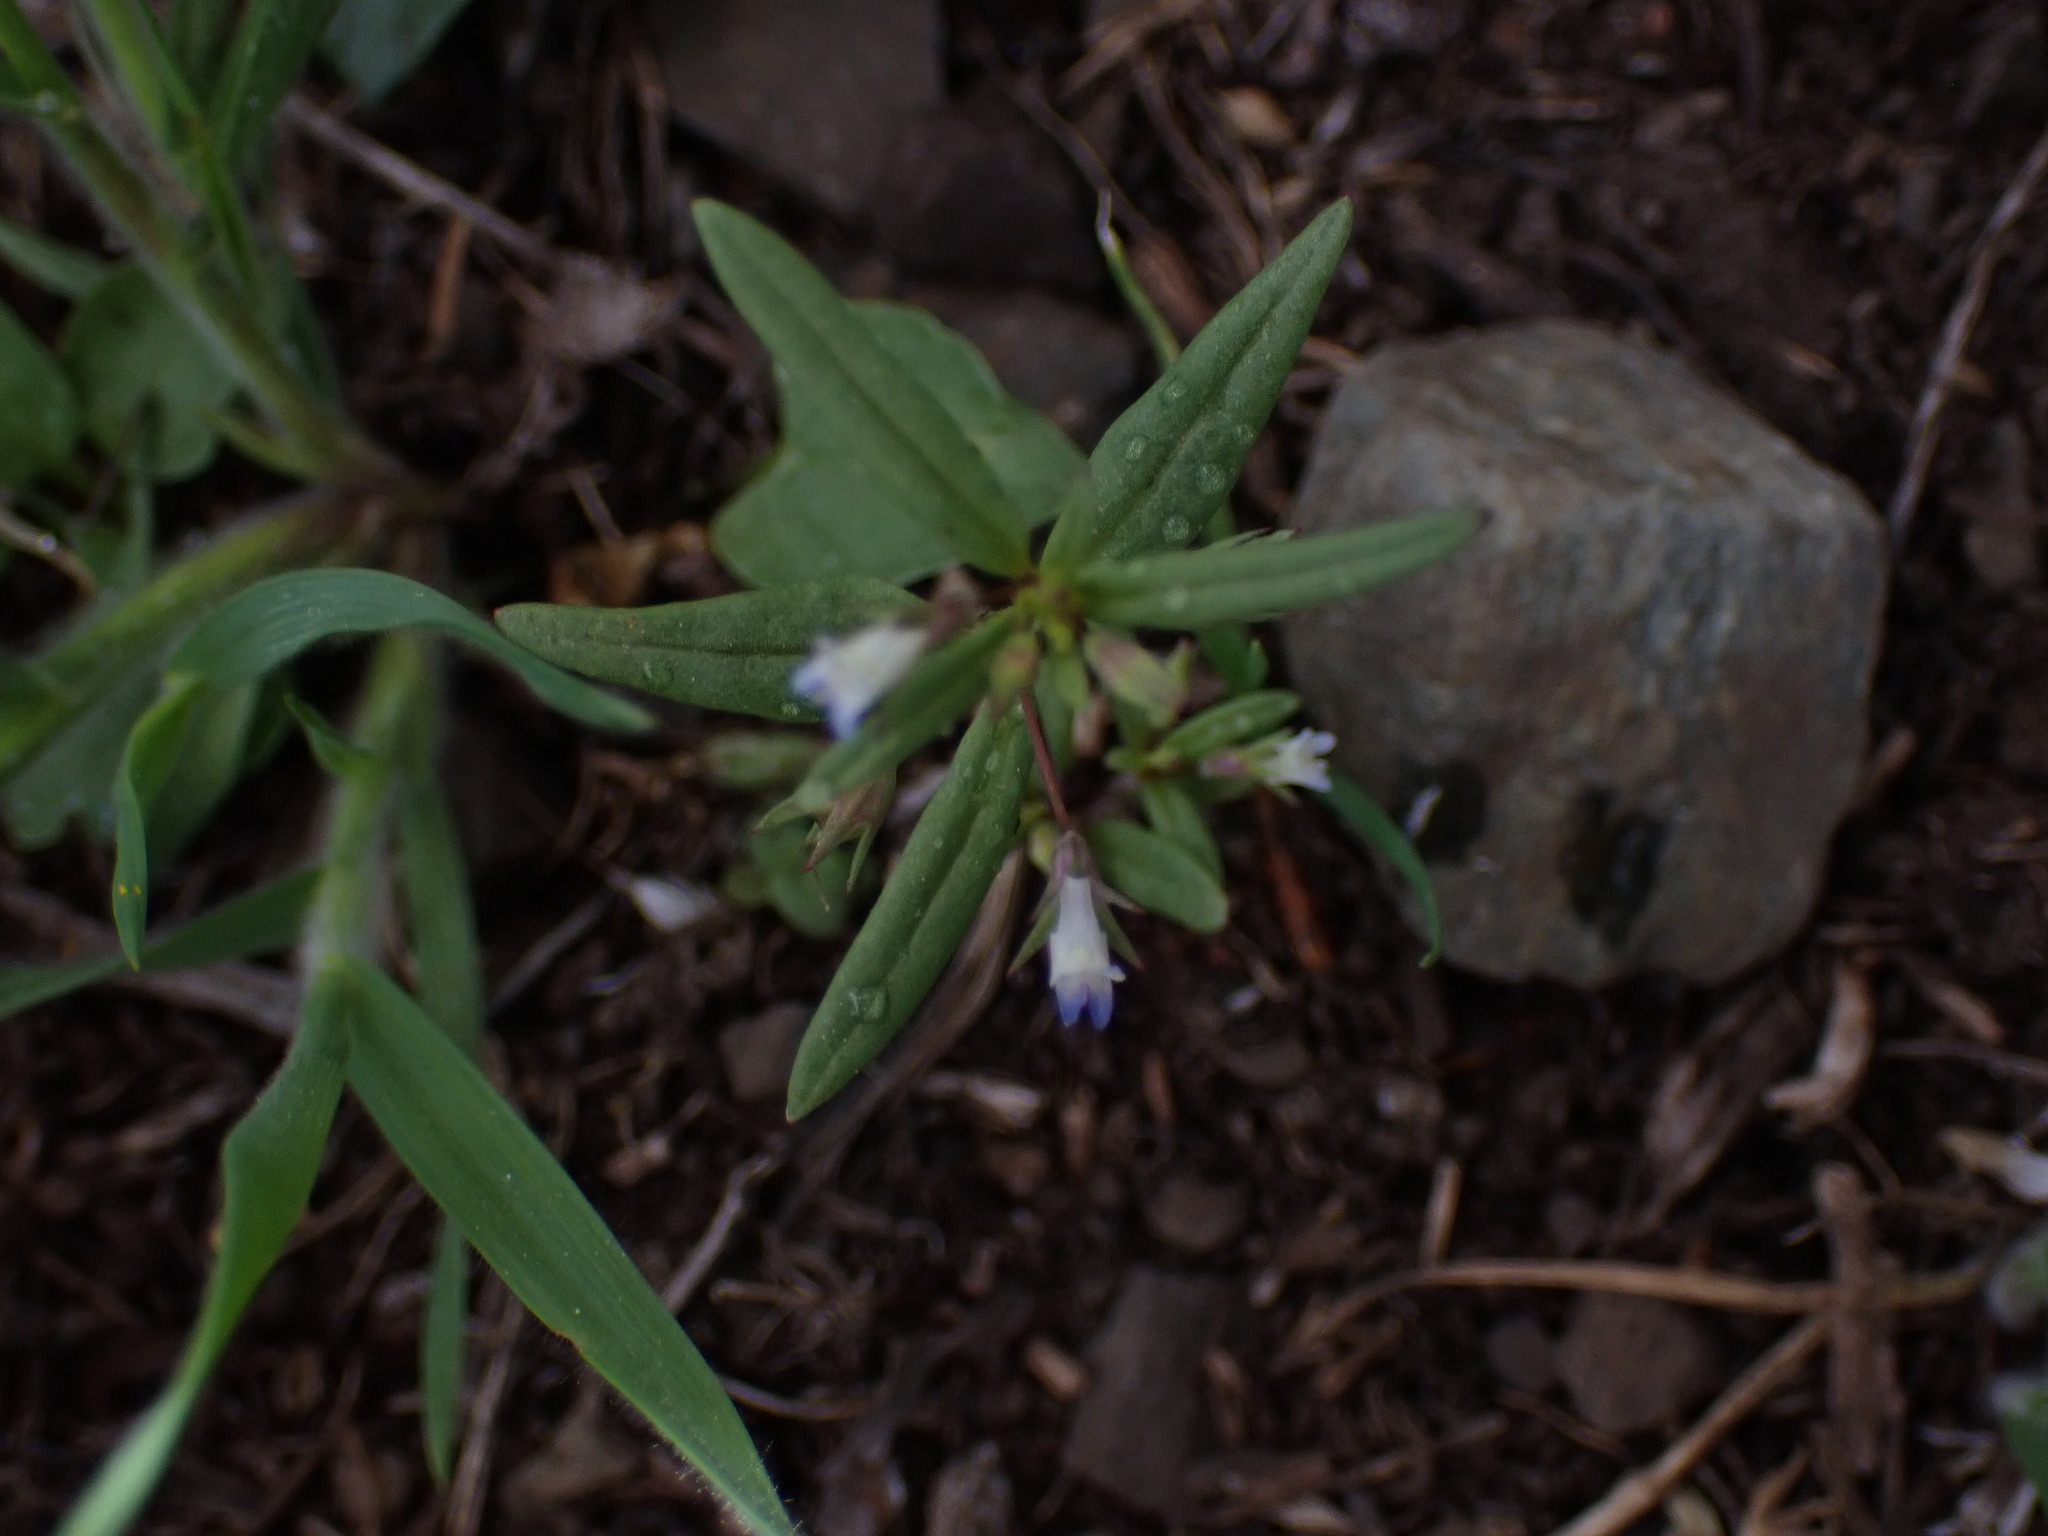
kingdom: Plantae
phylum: Tracheophyta
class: Magnoliopsida
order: Lamiales
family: Plantaginaceae
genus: Collinsia
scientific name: Collinsia parviflora
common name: Blue-lips
